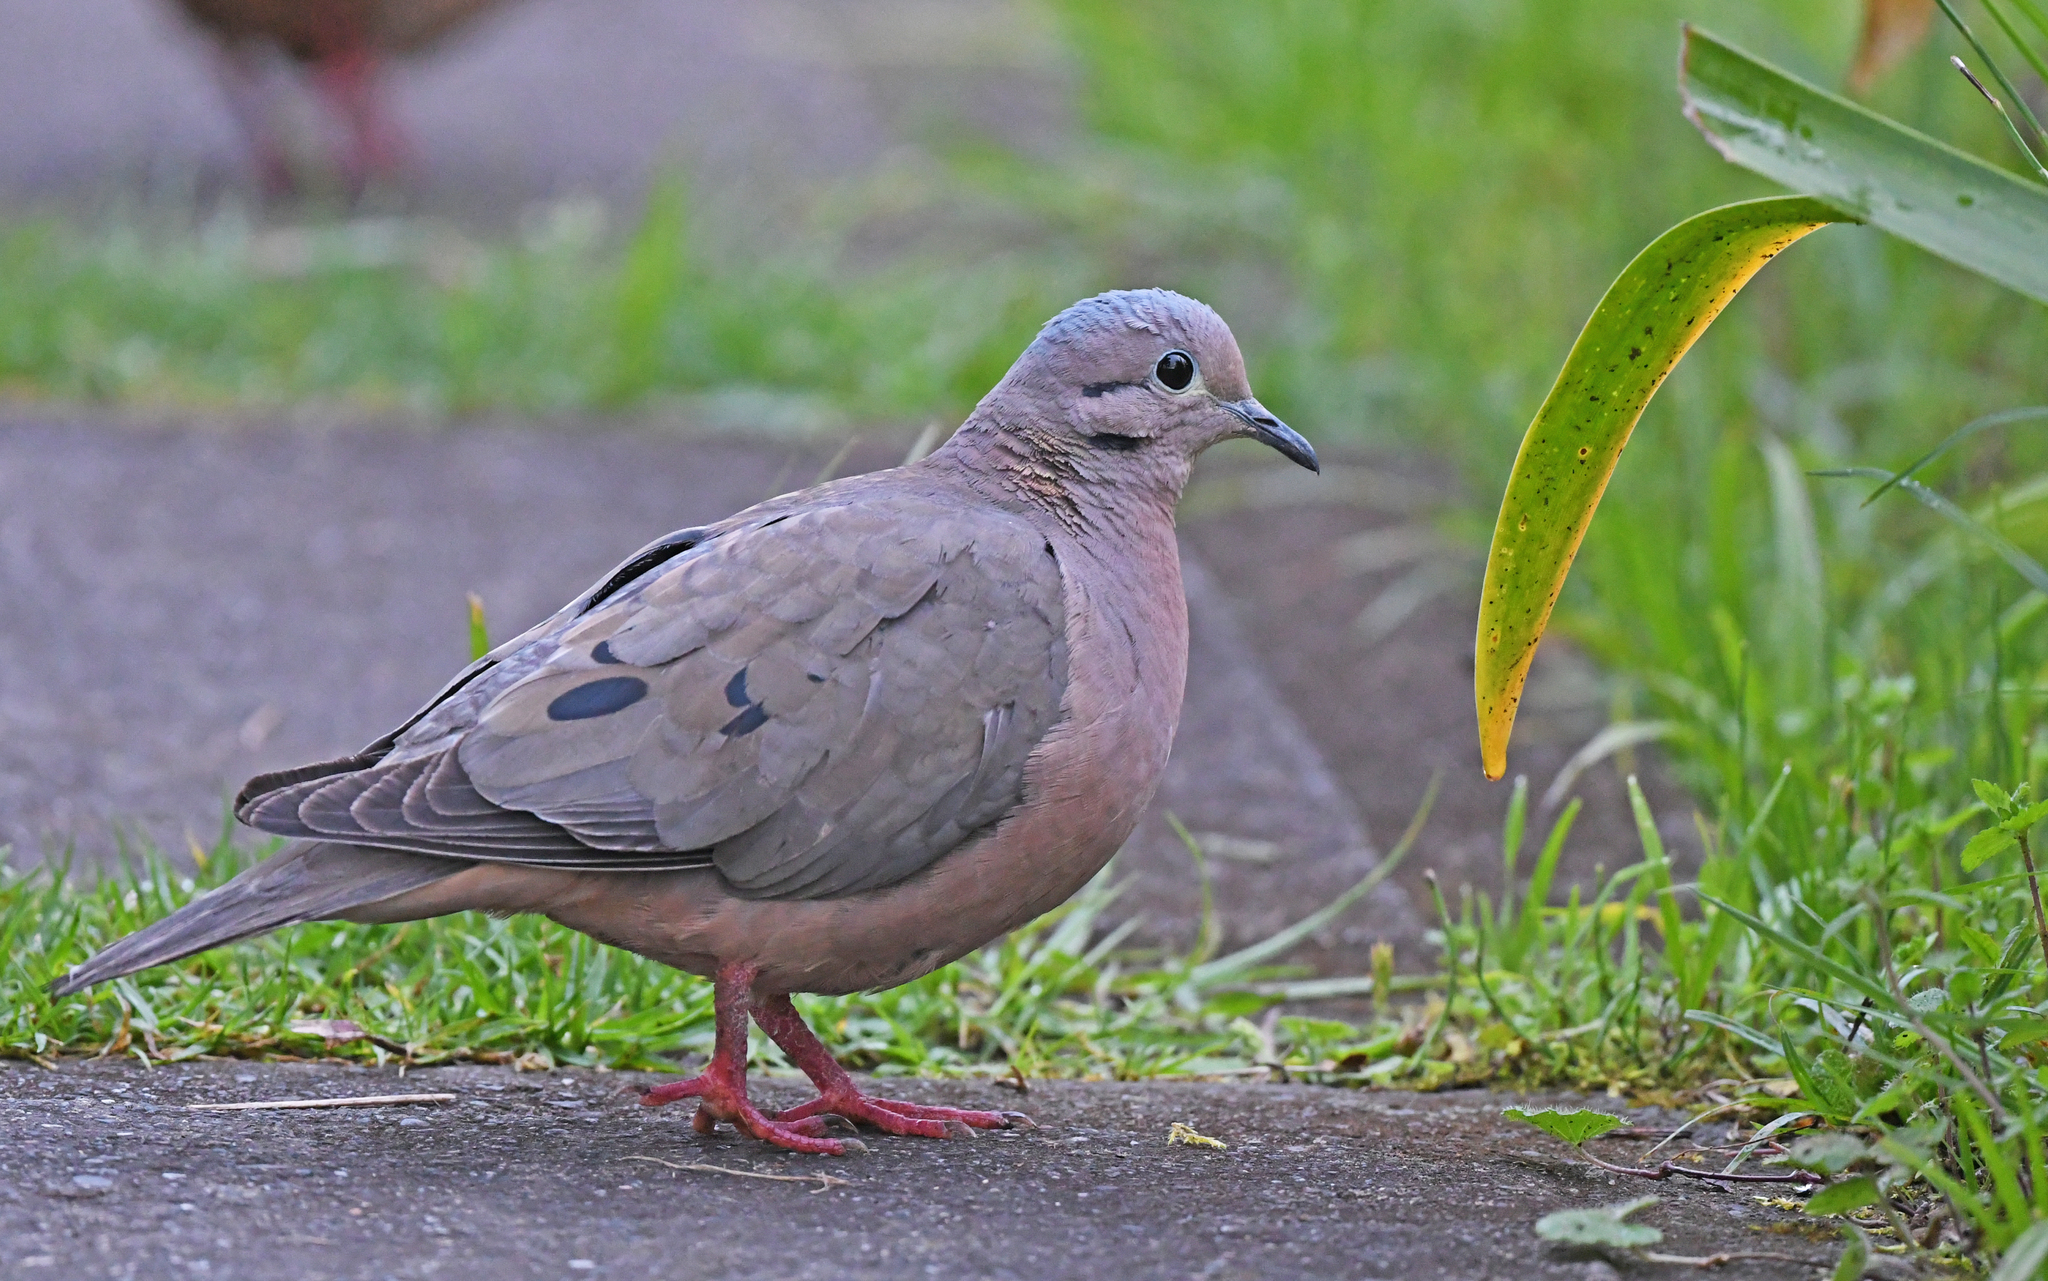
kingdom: Animalia
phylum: Chordata
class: Aves
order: Columbiformes
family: Columbidae
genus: Zenaida
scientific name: Zenaida auriculata
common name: Eared dove
